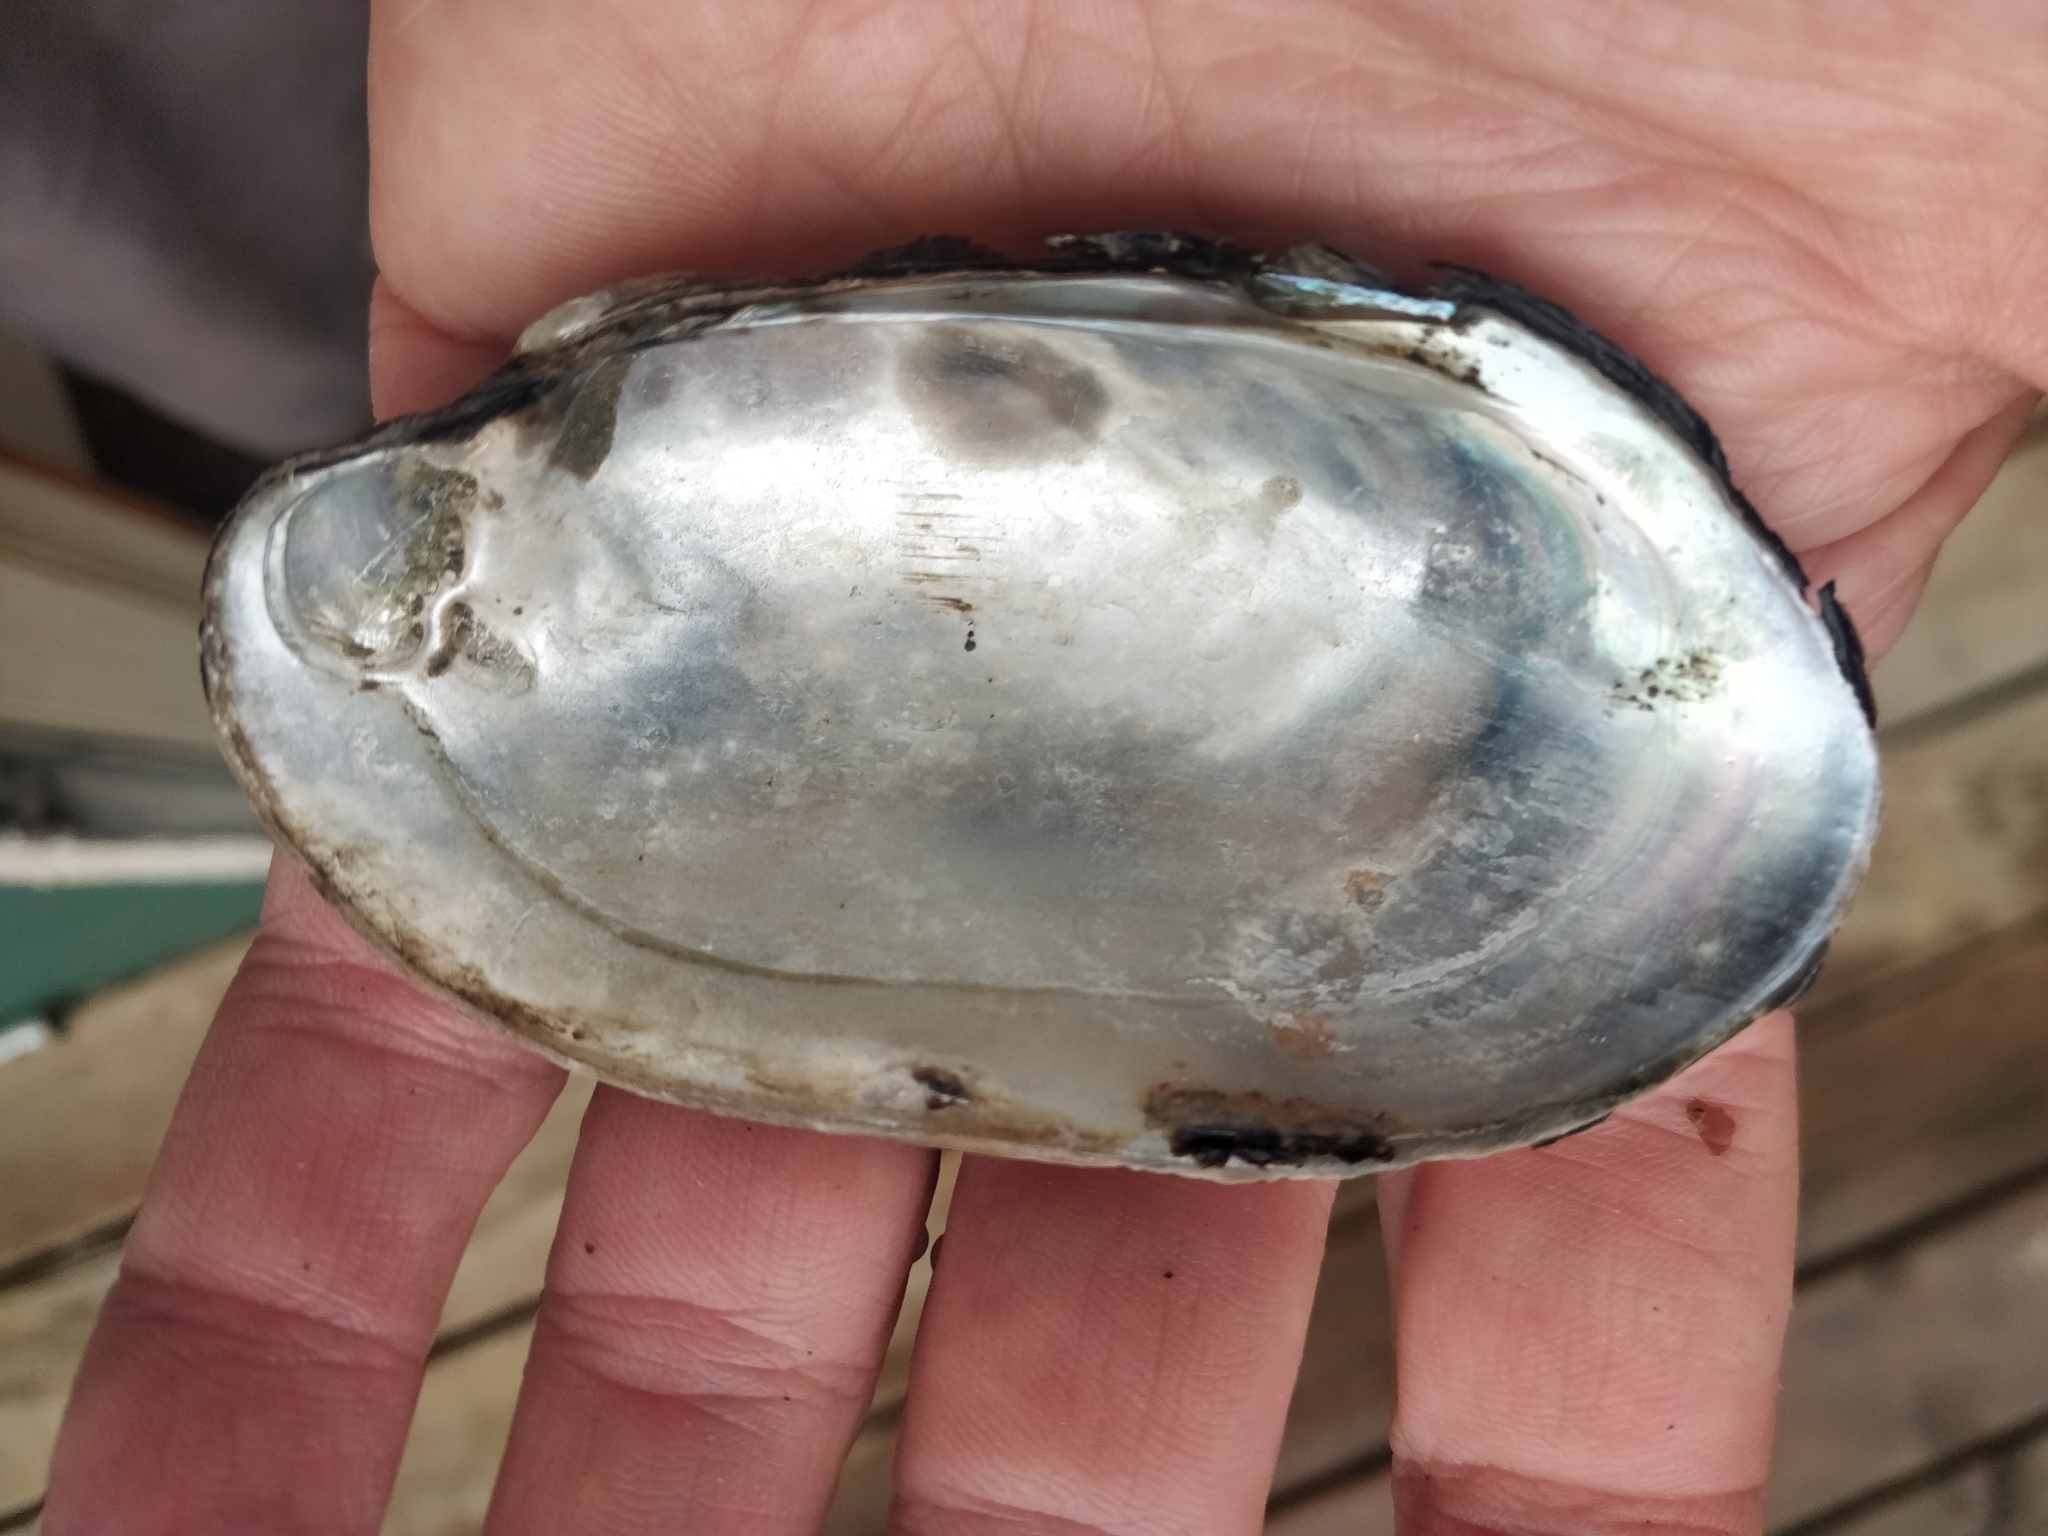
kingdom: Animalia
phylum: Mollusca
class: Bivalvia
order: Unionida
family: Unionidae
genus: Lampsilis
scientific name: Lampsilis siliquoidea
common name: Fatmucket
